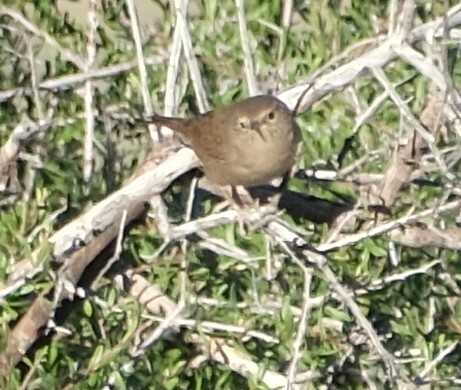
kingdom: Animalia
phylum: Chordata
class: Aves
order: Passeriformes
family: Troglodytidae
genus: Troglodytes
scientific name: Troglodytes aedon
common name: House wren
